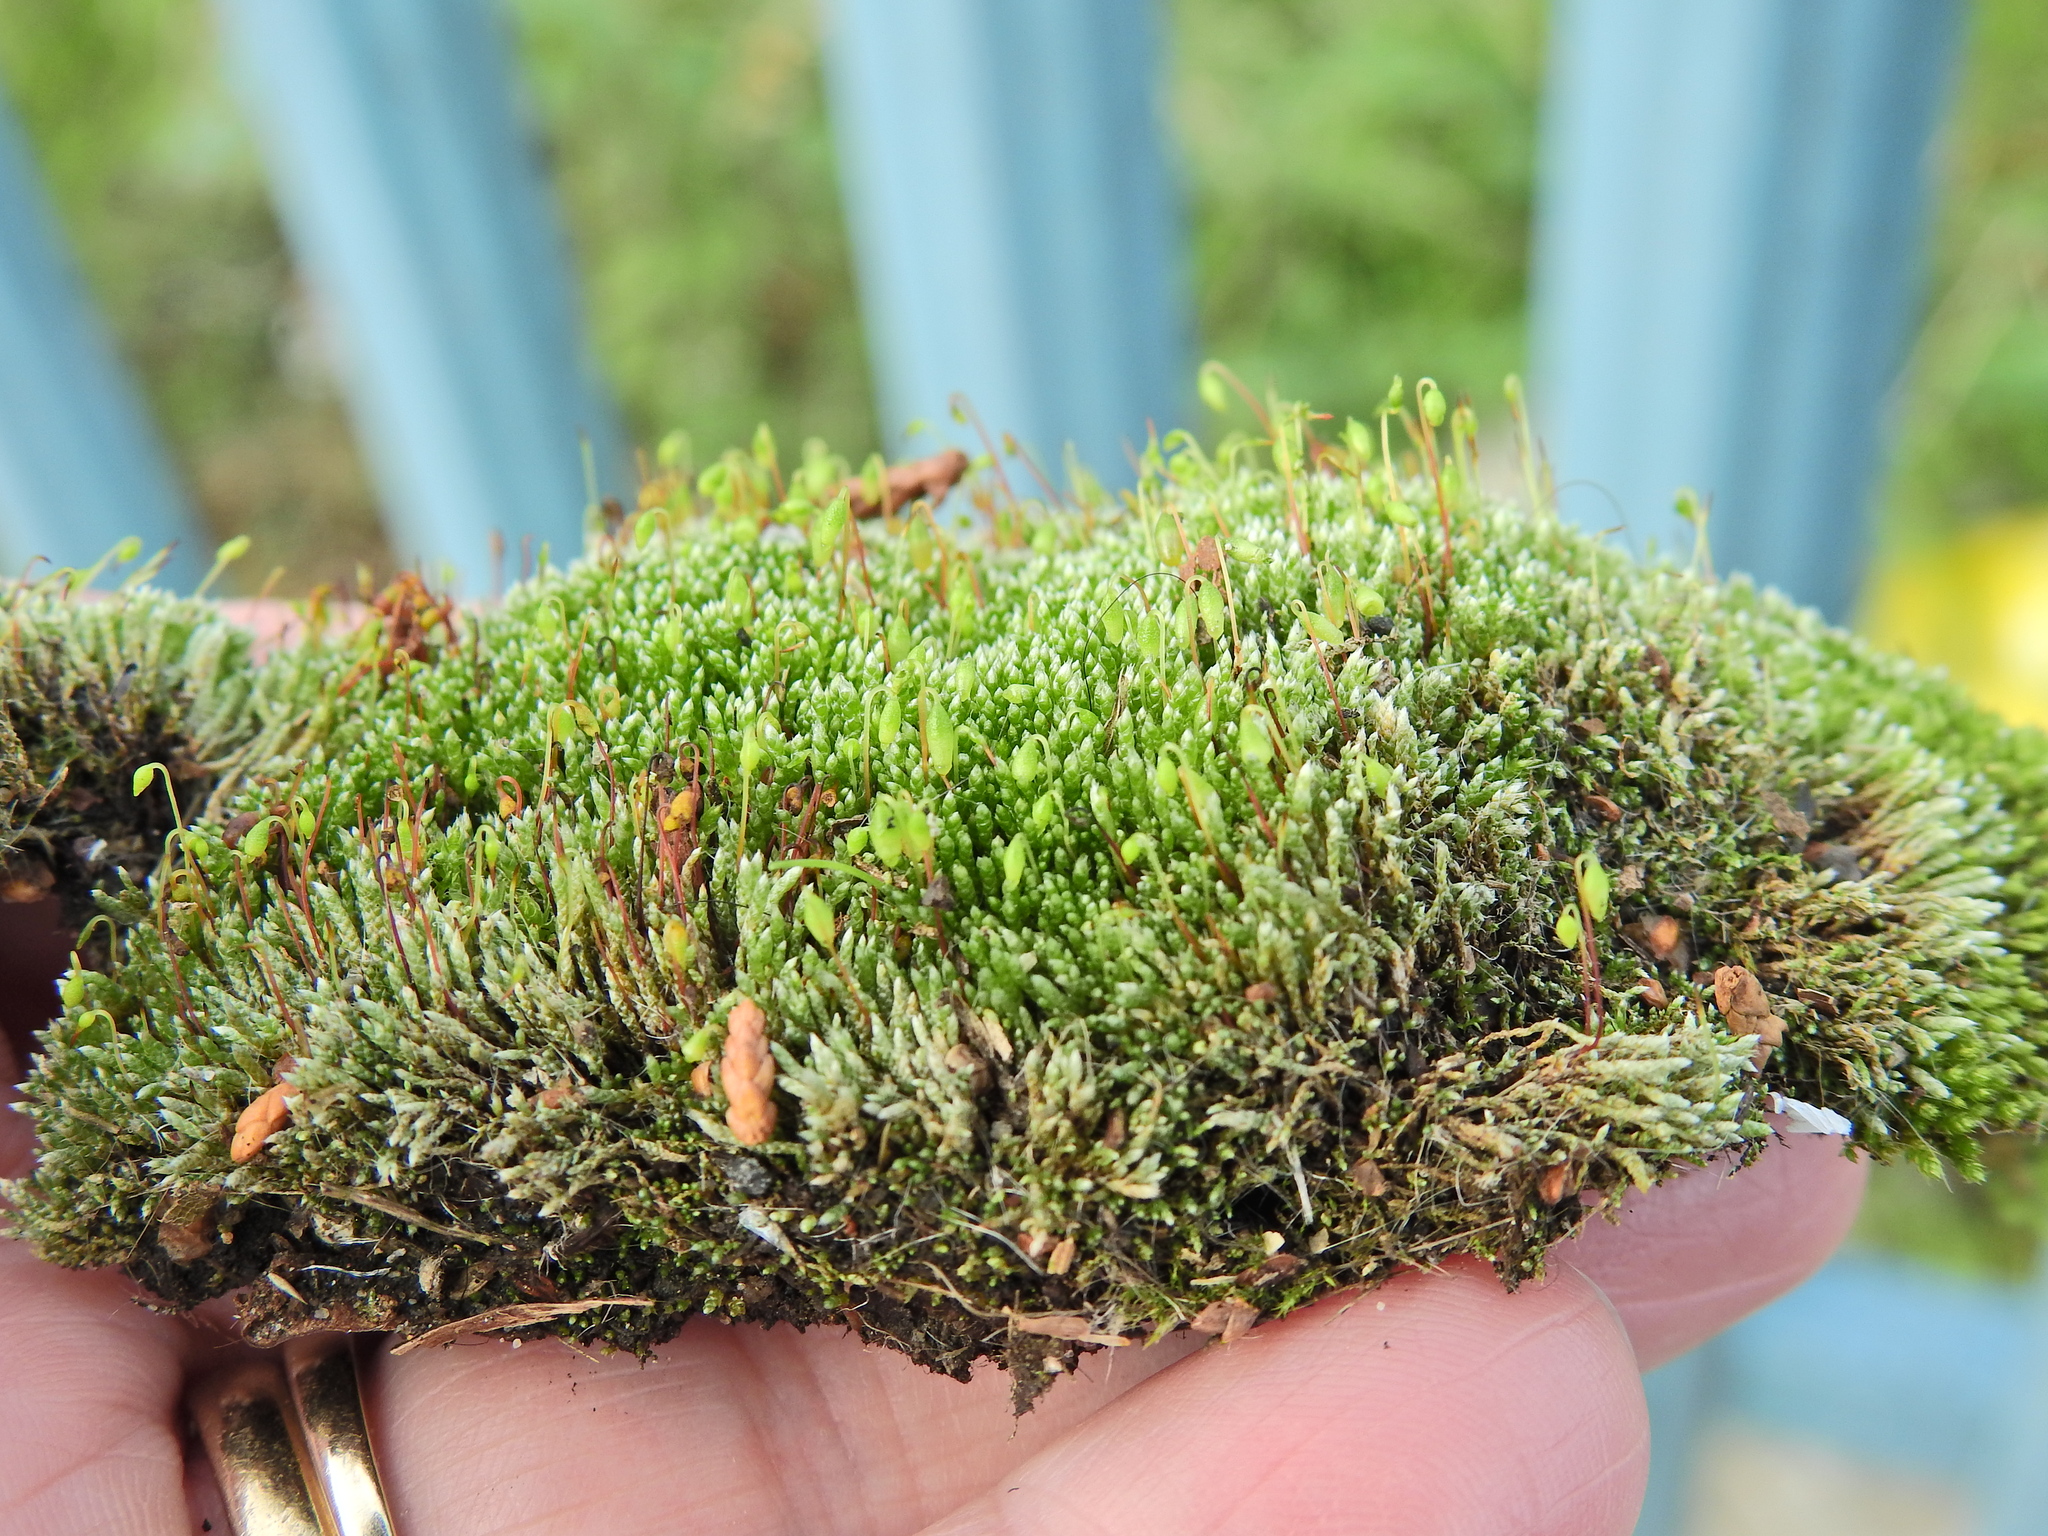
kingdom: Plantae
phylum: Bryophyta
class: Bryopsida
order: Bryales
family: Bryaceae
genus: Bryum
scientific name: Bryum argenteum
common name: Silver-moss
